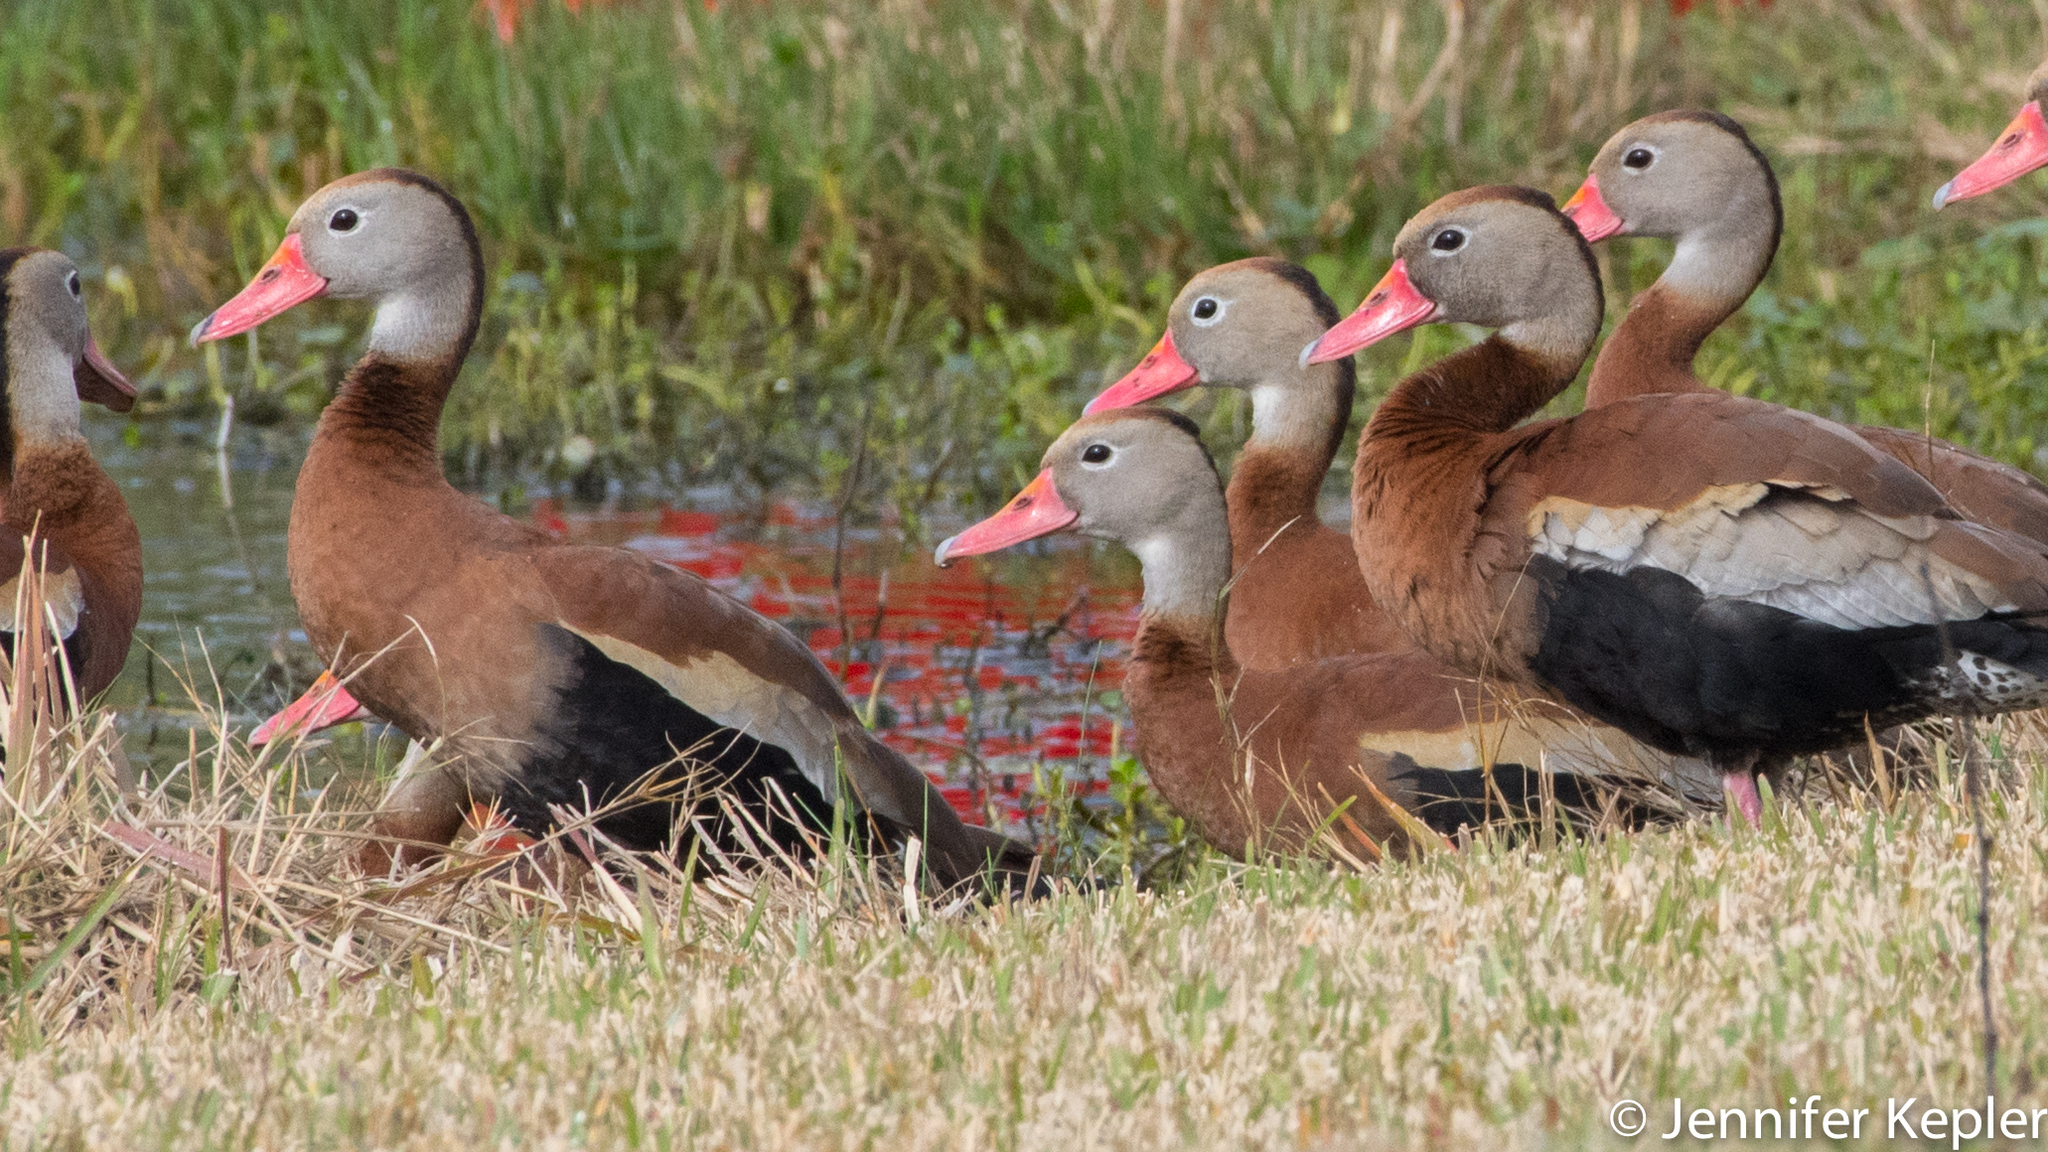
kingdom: Animalia
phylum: Chordata
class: Aves
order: Anseriformes
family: Anatidae
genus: Dendrocygna
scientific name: Dendrocygna autumnalis
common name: Black-bellied whistling duck
